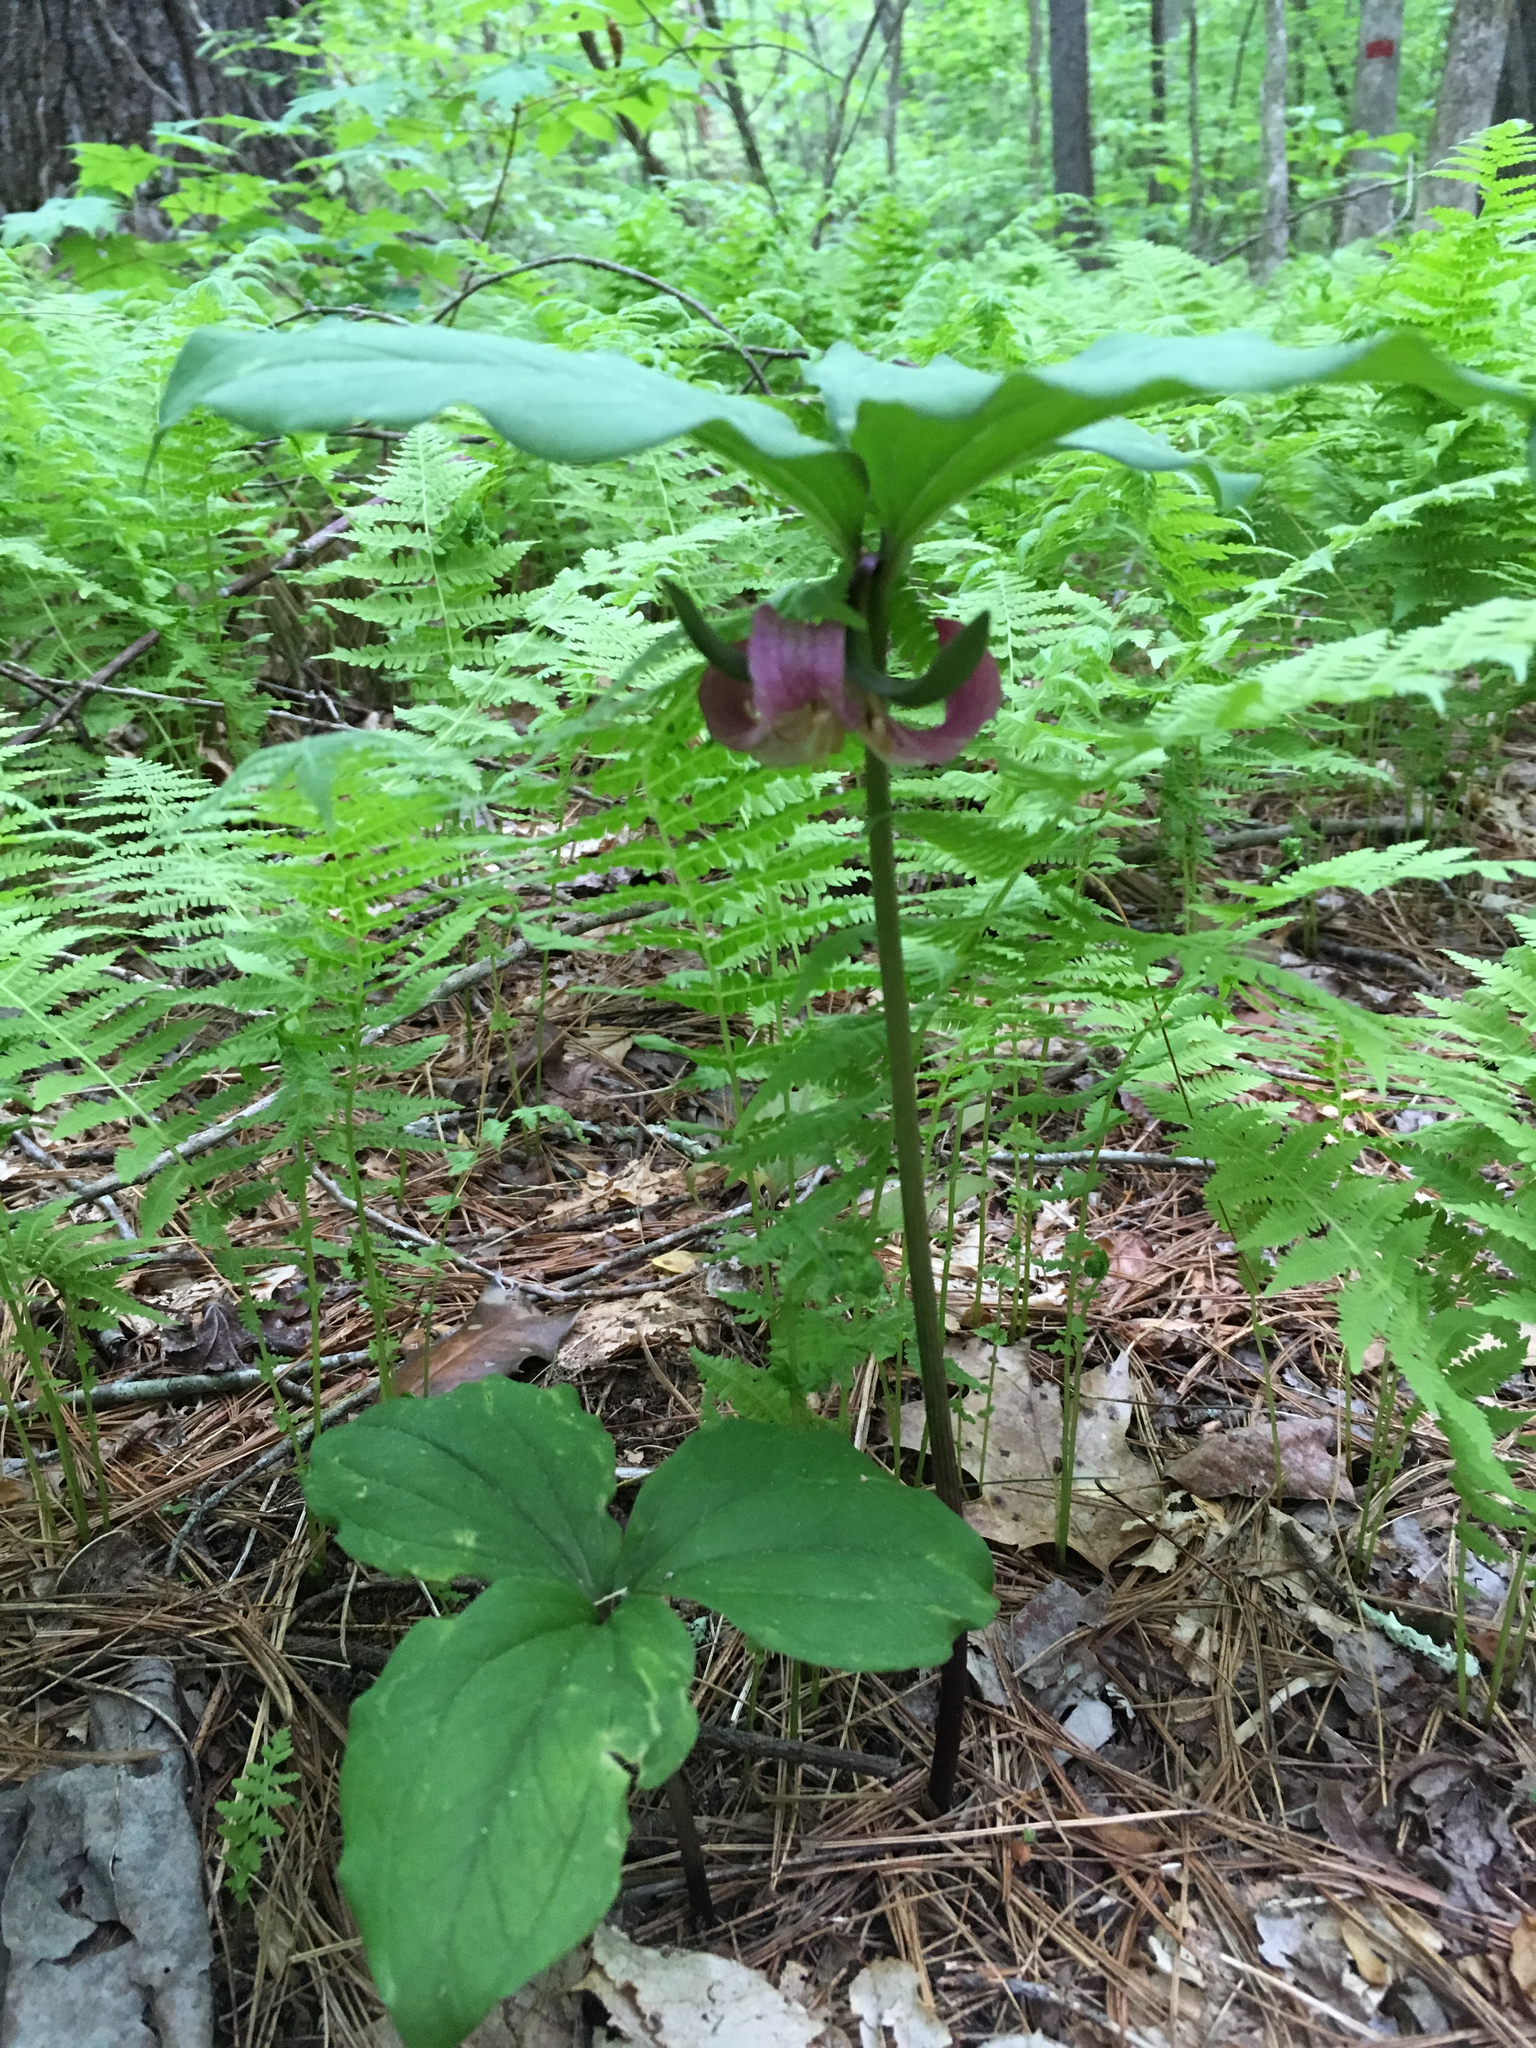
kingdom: Plantae
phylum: Tracheophyta
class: Liliopsida
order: Liliales
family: Melanthiaceae
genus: Trillium
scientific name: Trillium catesbaei
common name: Bashful trillium
